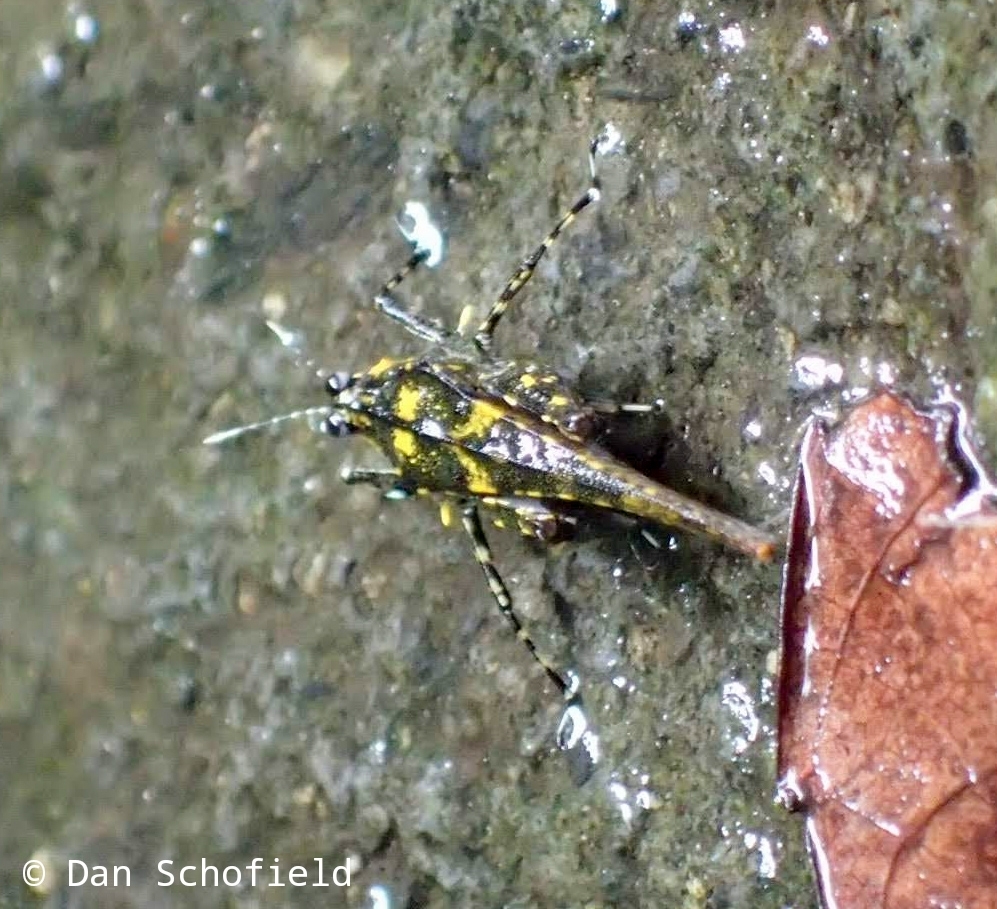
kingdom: Animalia
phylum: Arthropoda
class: Insecta
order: Orthoptera
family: Tetrigidae
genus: Tagaloscelimena
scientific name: Tagaloscelimena aurivillii
